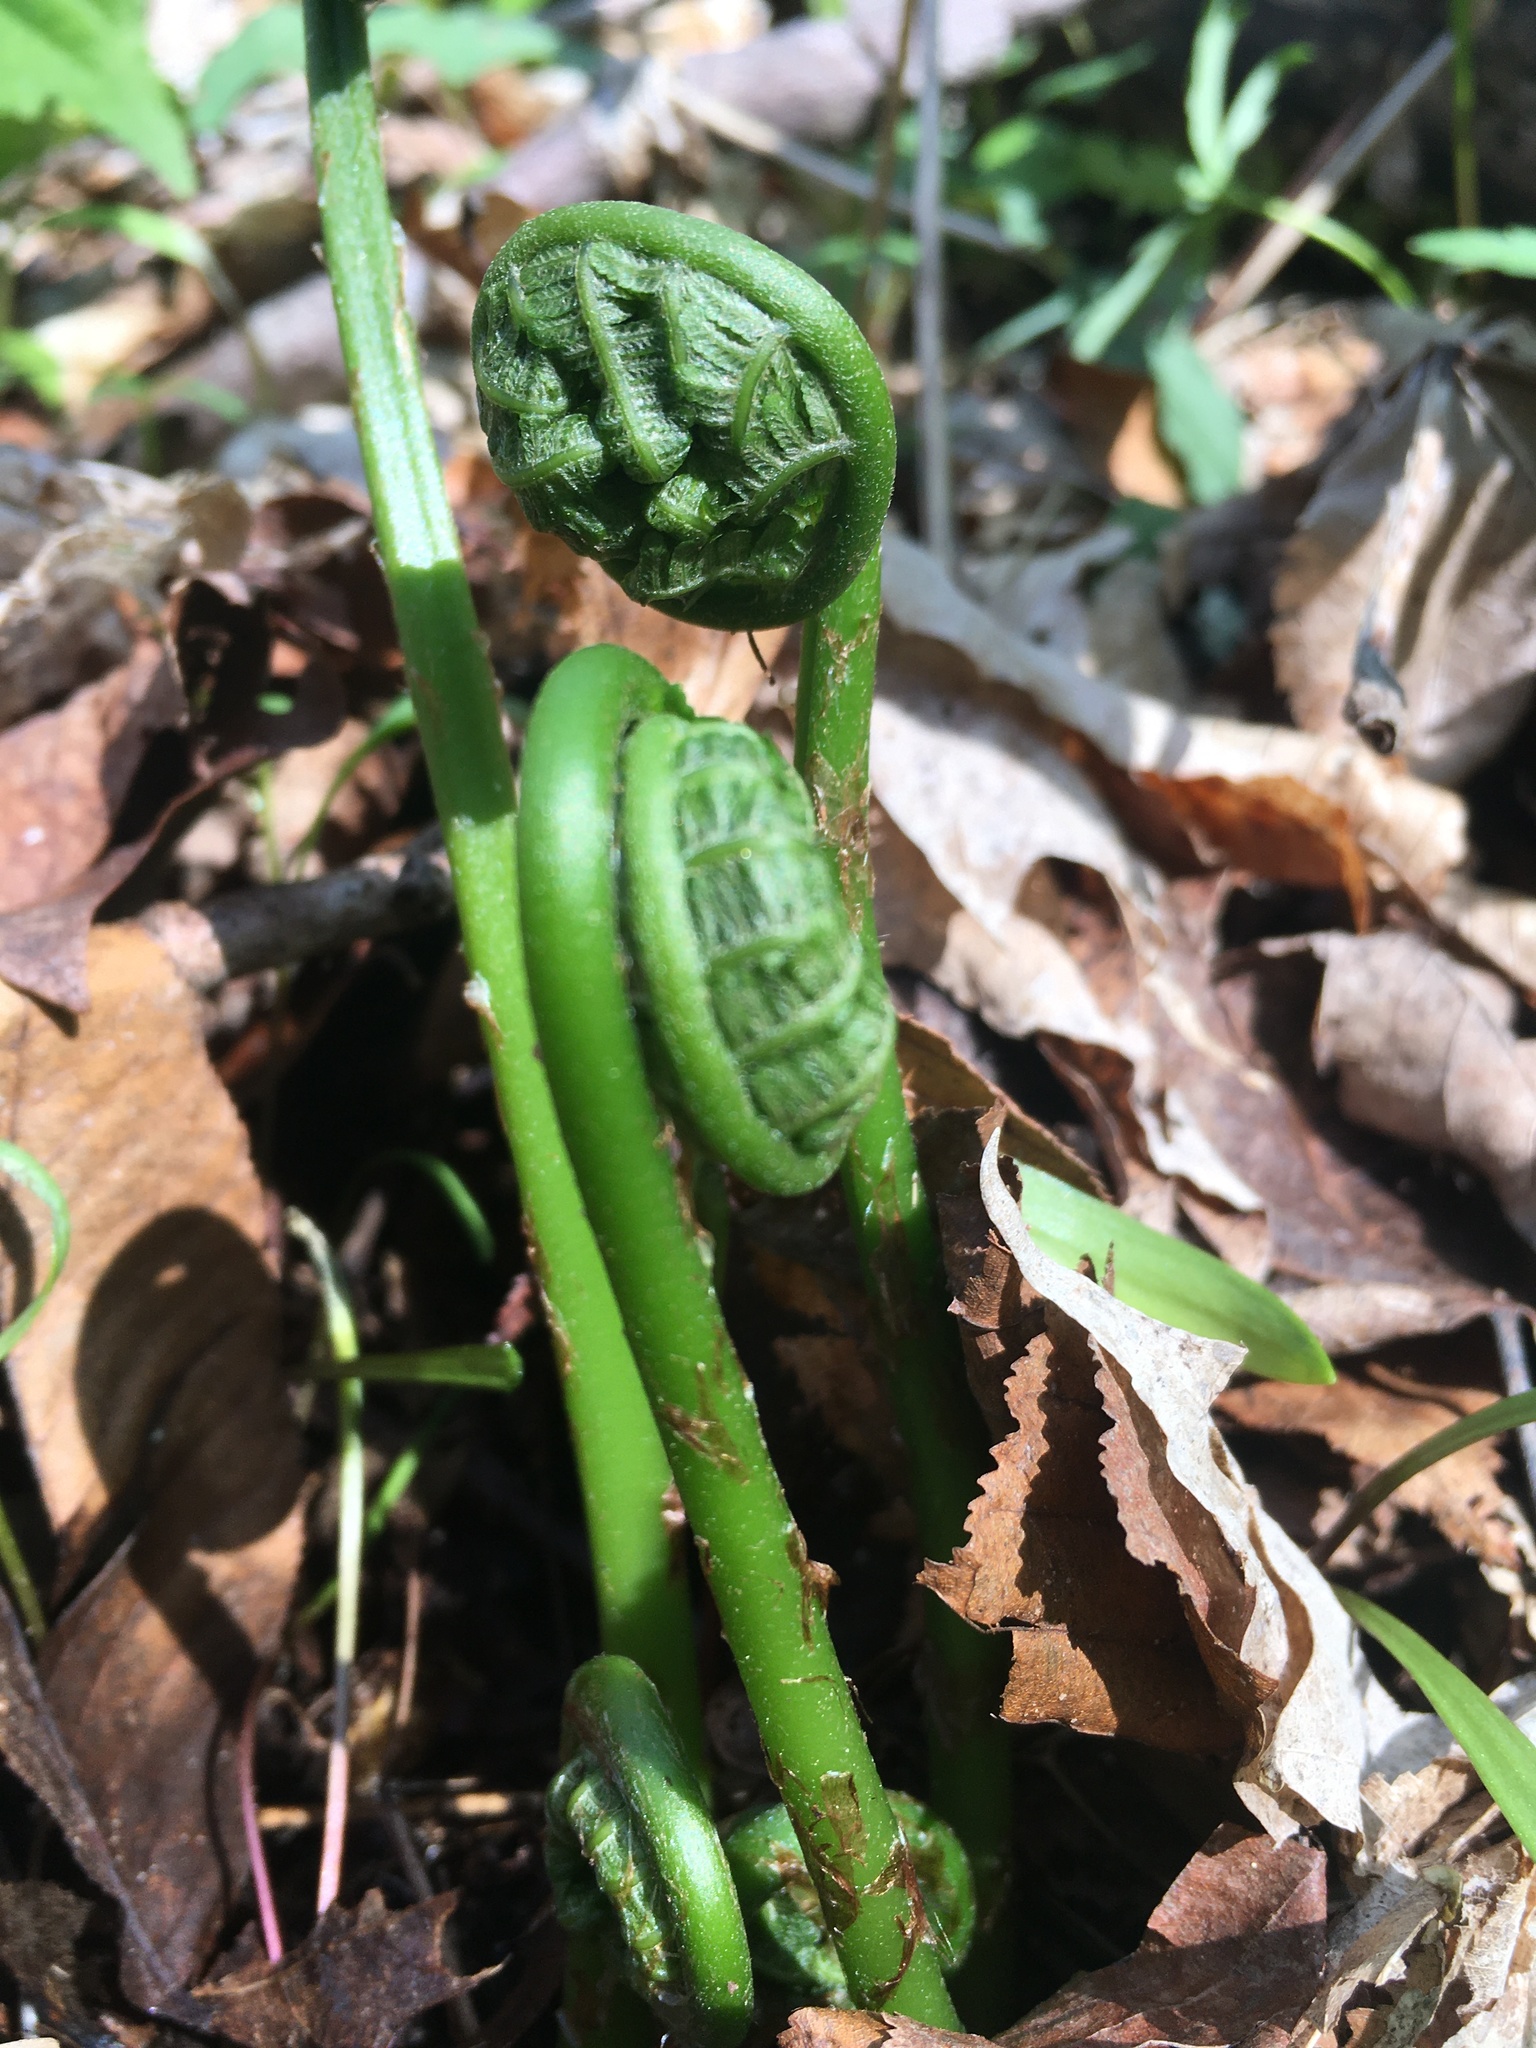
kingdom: Plantae
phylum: Tracheophyta
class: Polypodiopsida
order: Polypodiales
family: Athyriaceae
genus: Deparia
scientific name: Deparia acrostichoides
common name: Silver false spleenwort
